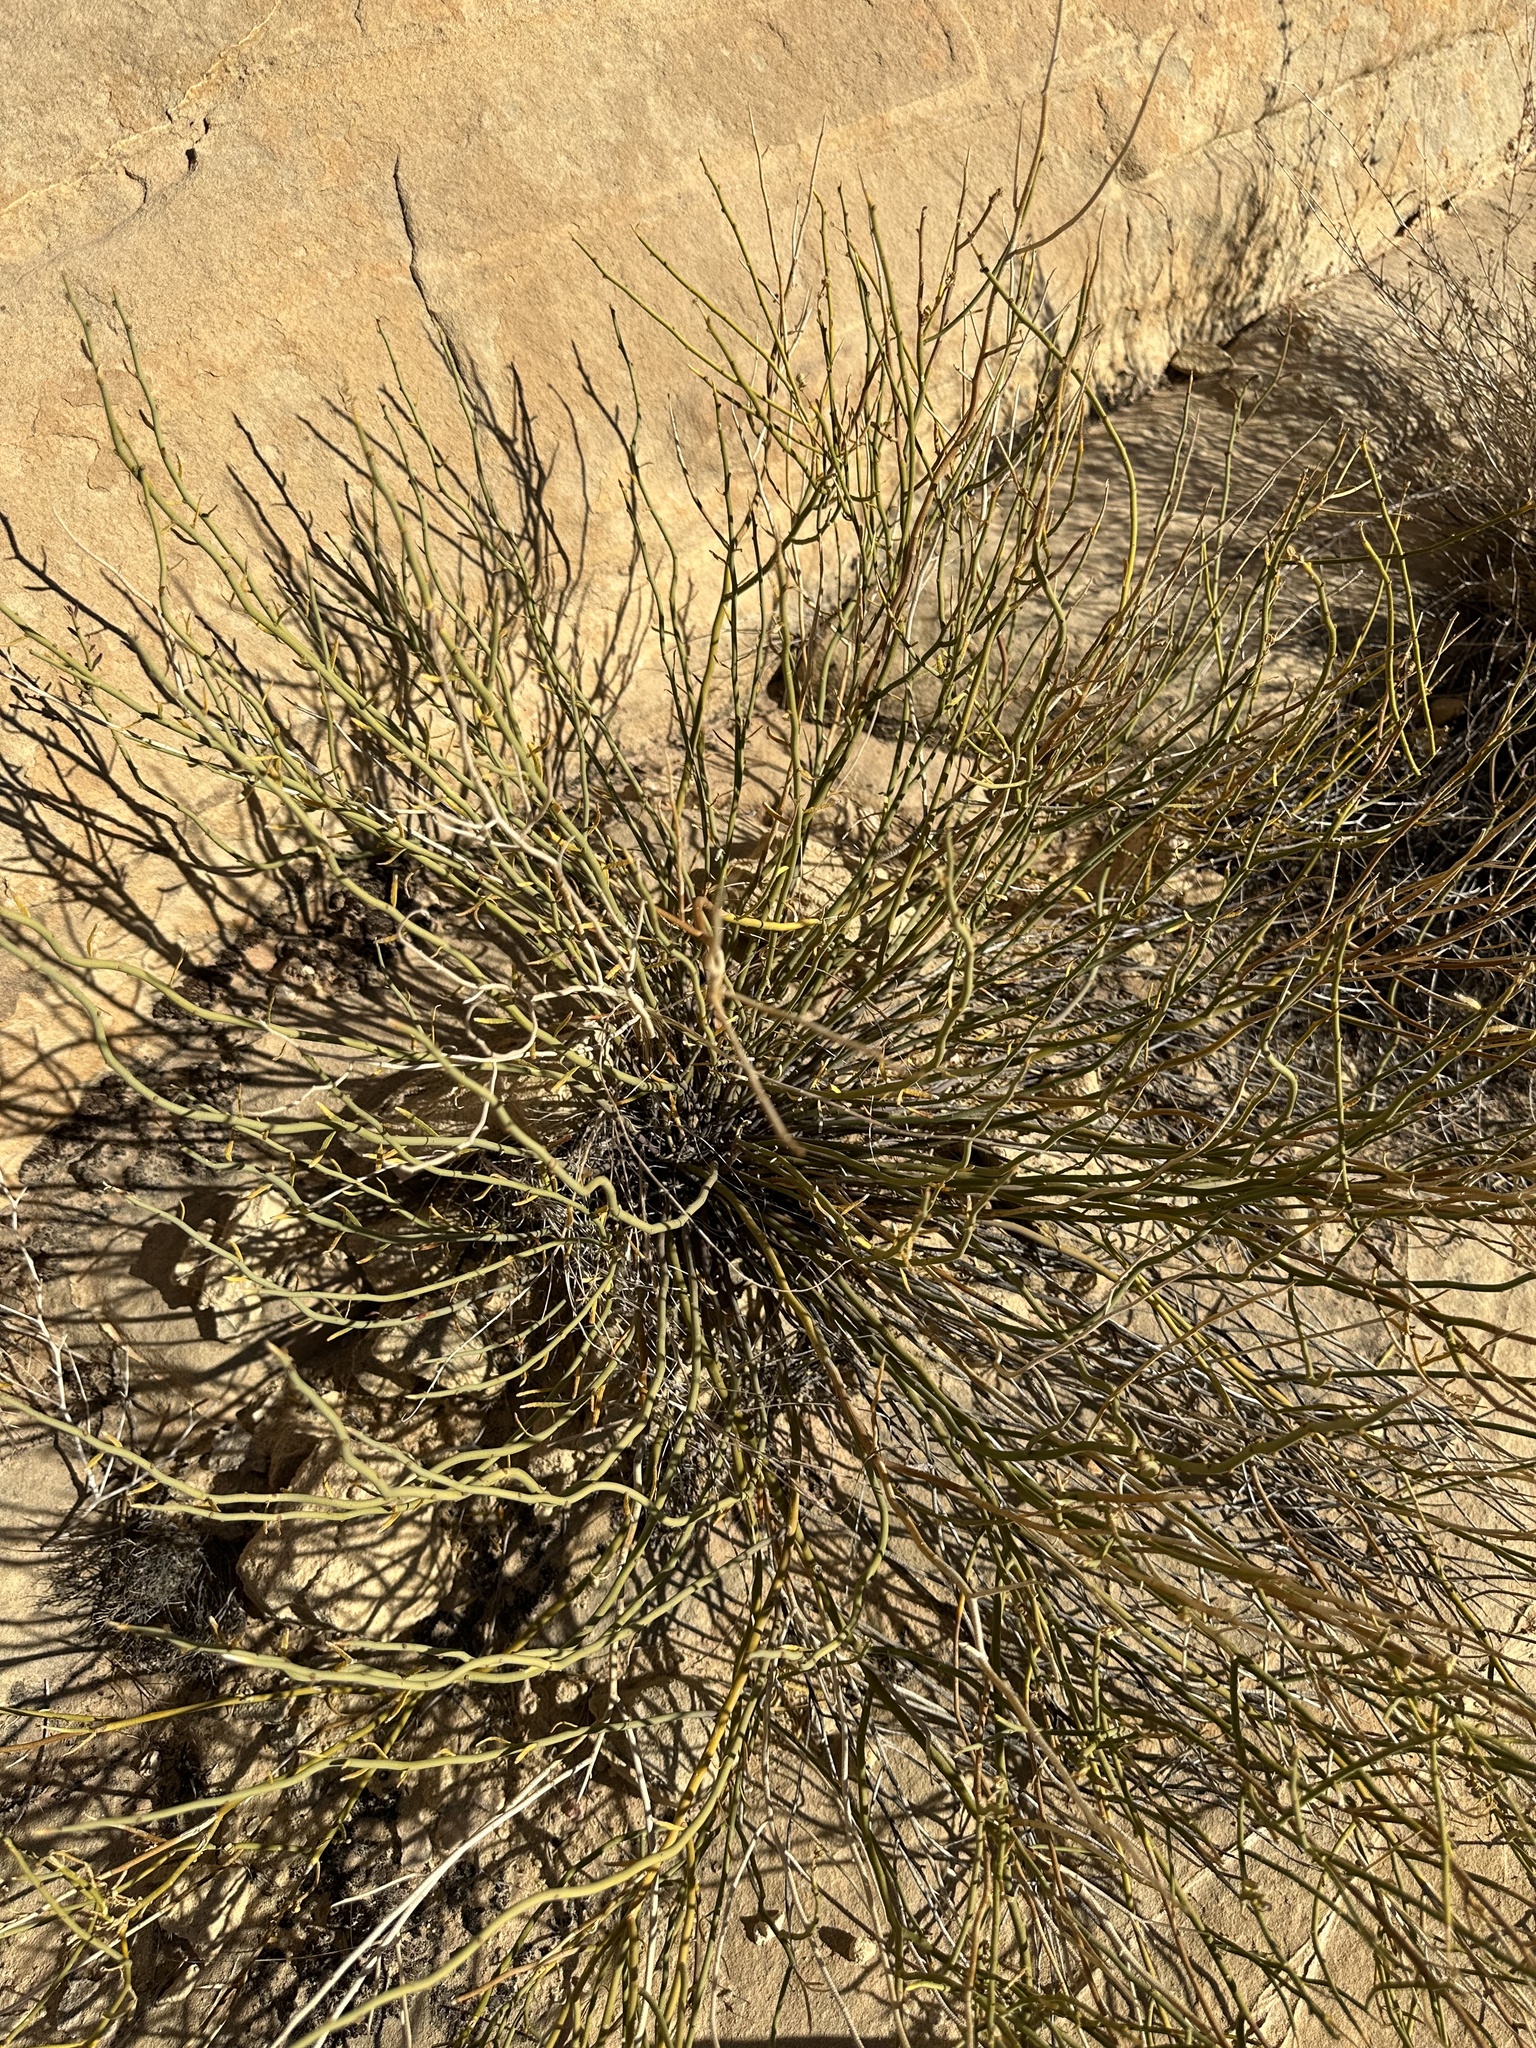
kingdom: Plantae
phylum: Tracheophyta
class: Magnoliopsida
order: Sapindales
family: Rutaceae
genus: Thamnosma
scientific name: Thamnosma montana
